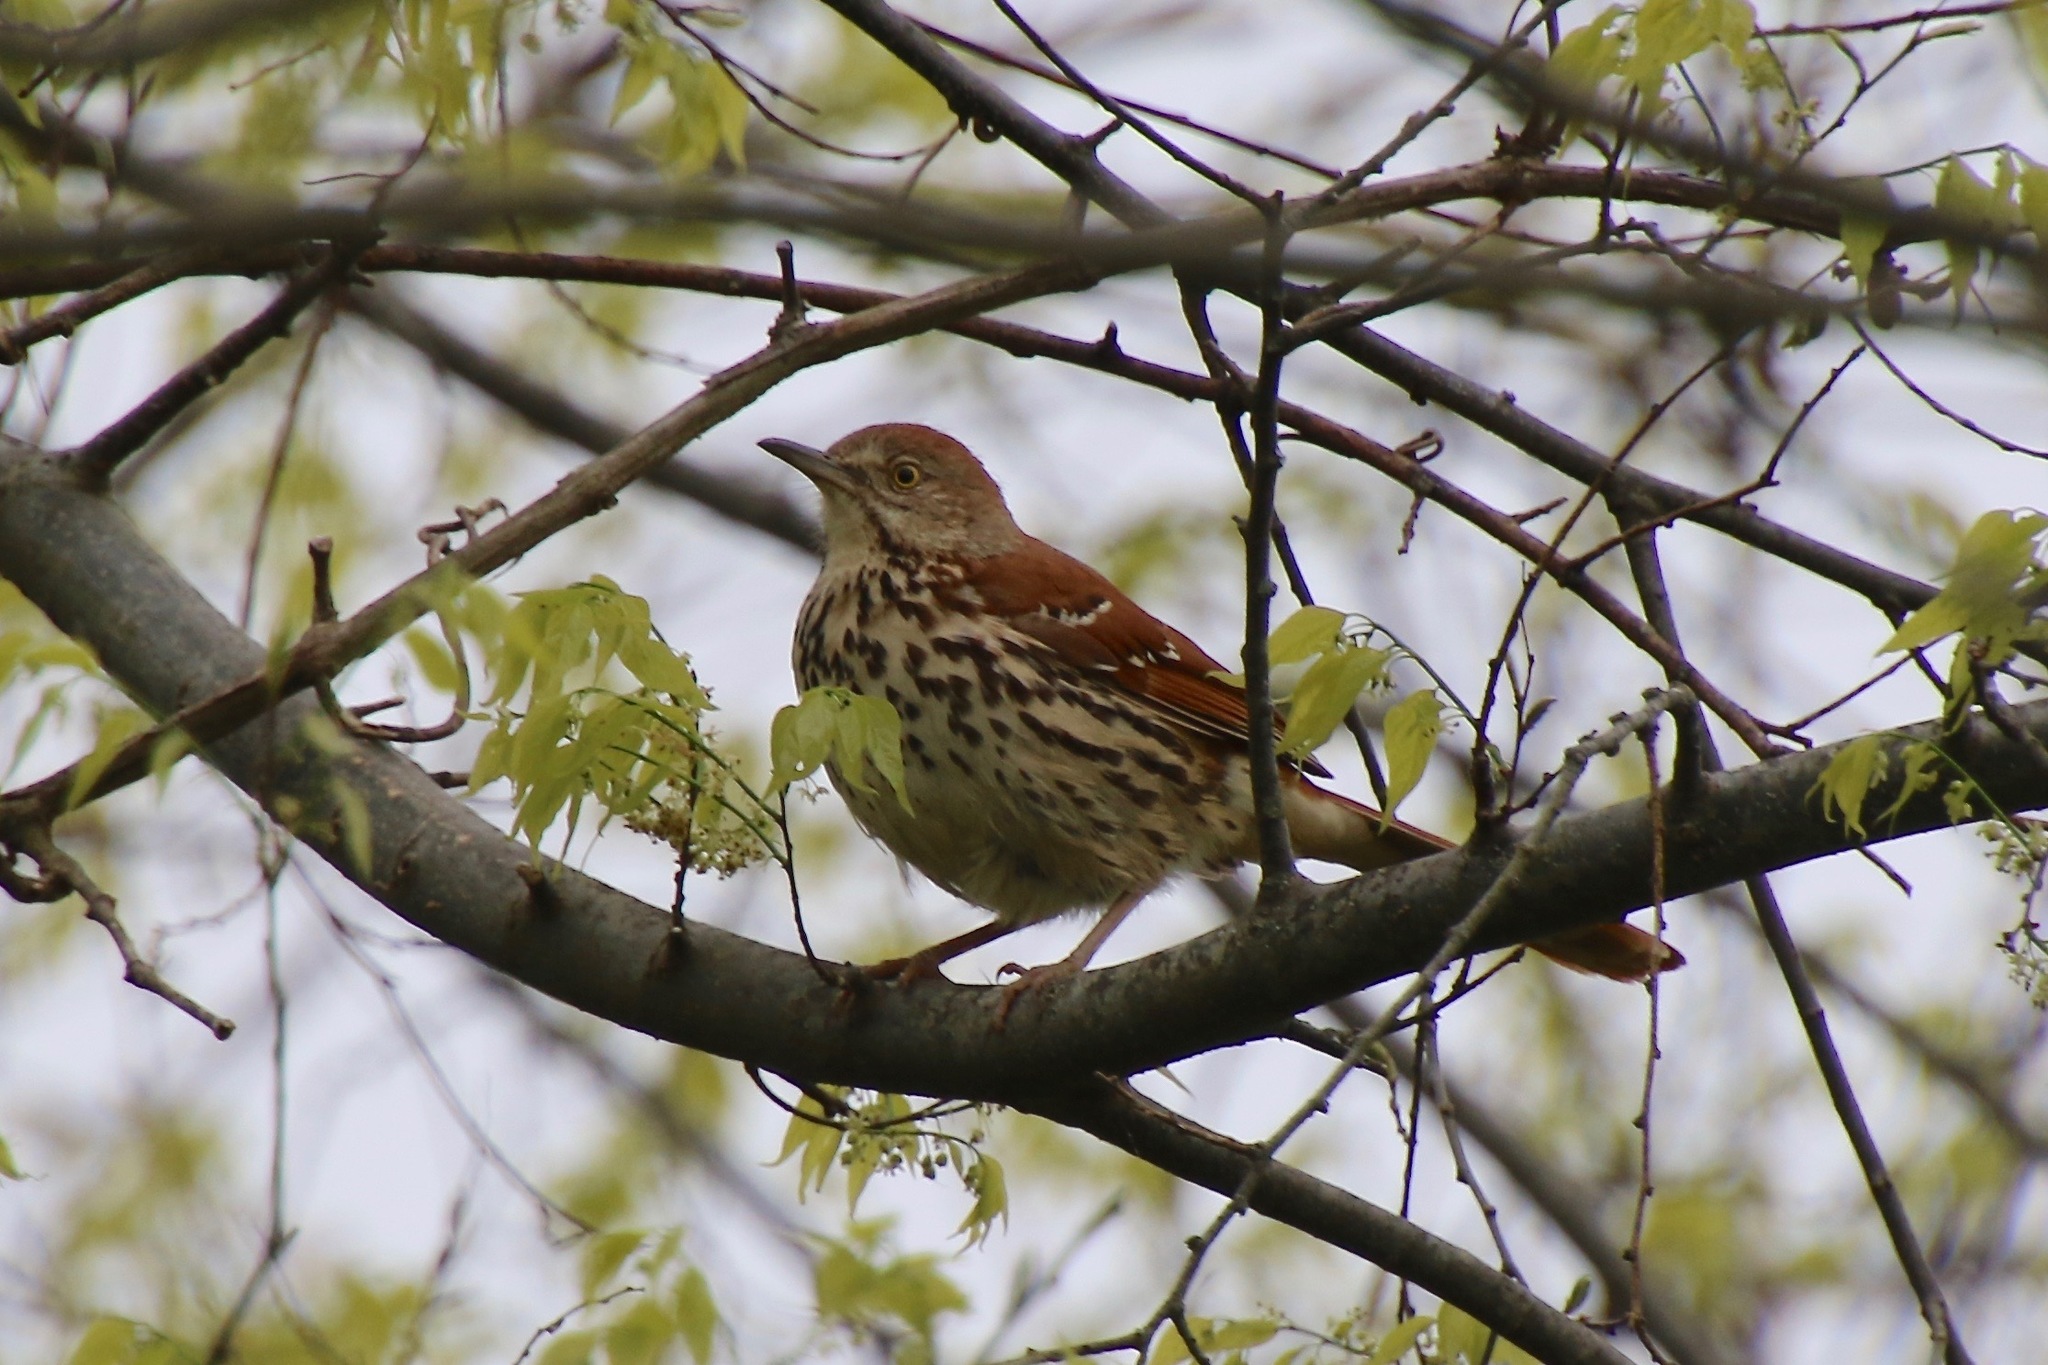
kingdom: Animalia
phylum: Chordata
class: Aves
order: Passeriformes
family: Mimidae
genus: Toxostoma
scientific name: Toxostoma rufum
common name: Brown thrasher
